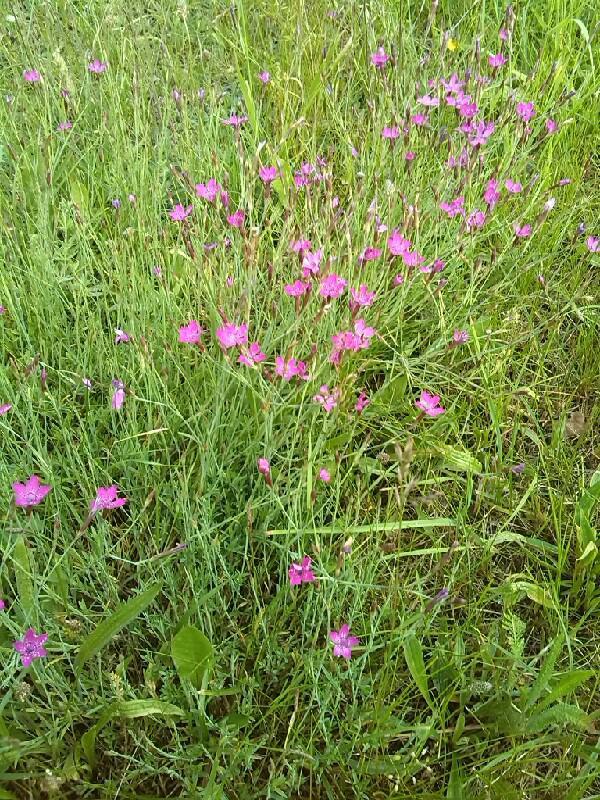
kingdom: Plantae
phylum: Tracheophyta
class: Magnoliopsida
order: Caryophyllales
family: Caryophyllaceae
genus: Dianthus
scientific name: Dianthus deltoides
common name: Maiden pink
